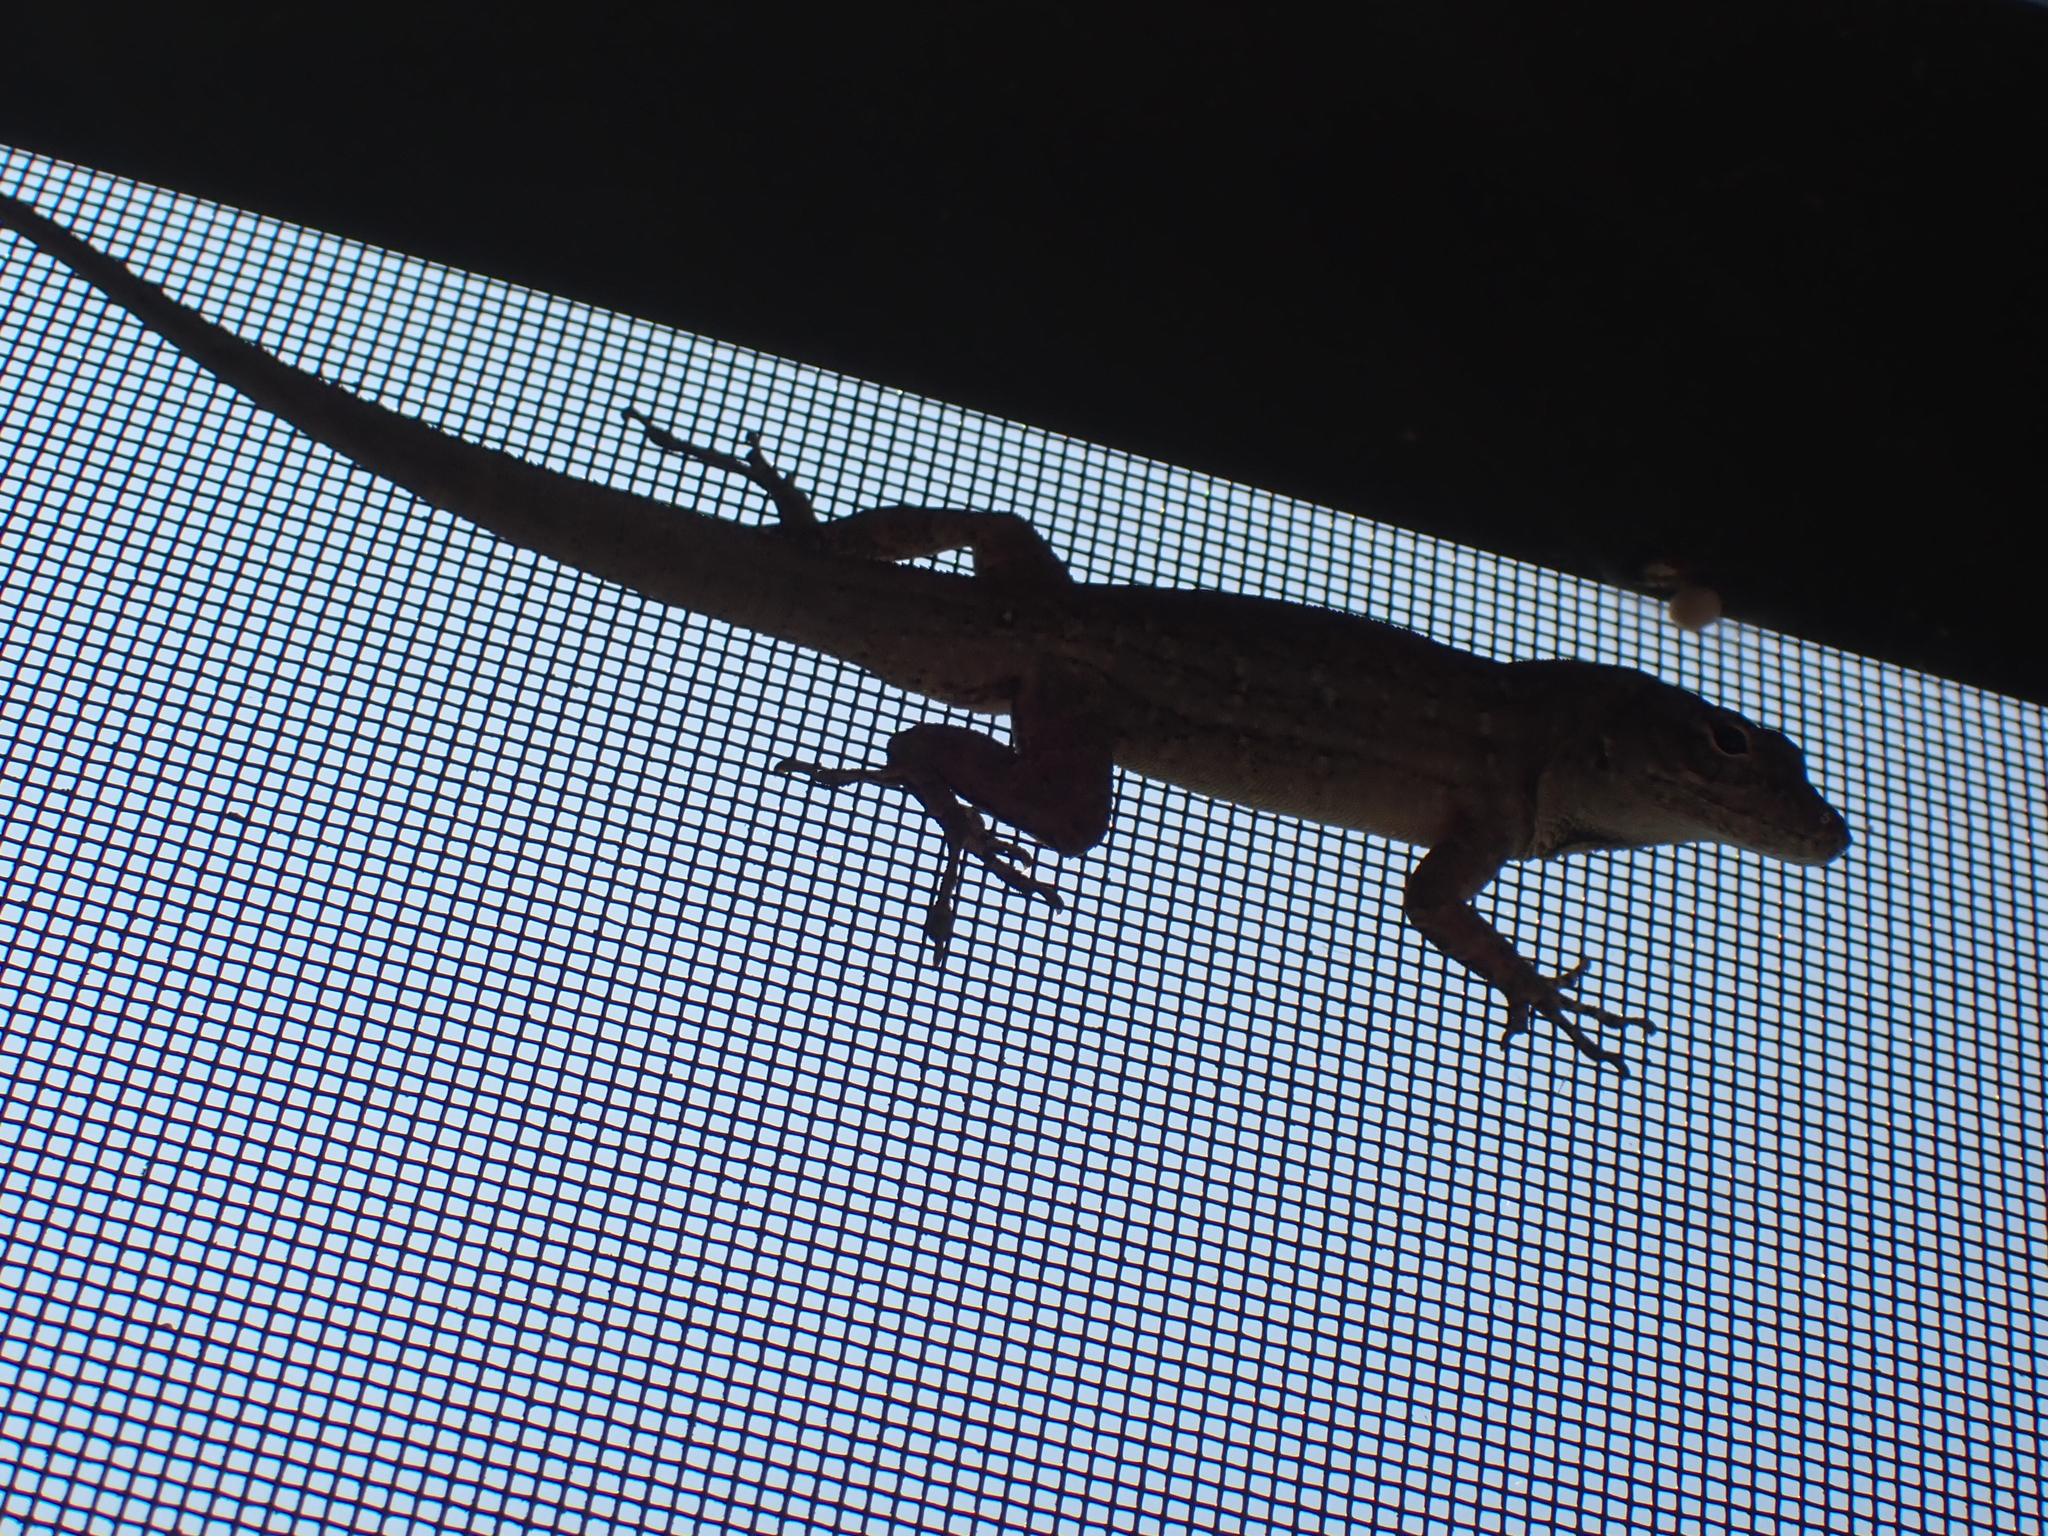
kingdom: Animalia
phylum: Chordata
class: Squamata
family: Dactyloidae
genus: Anolis
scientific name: Anolis sagrei
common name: Brown anole
